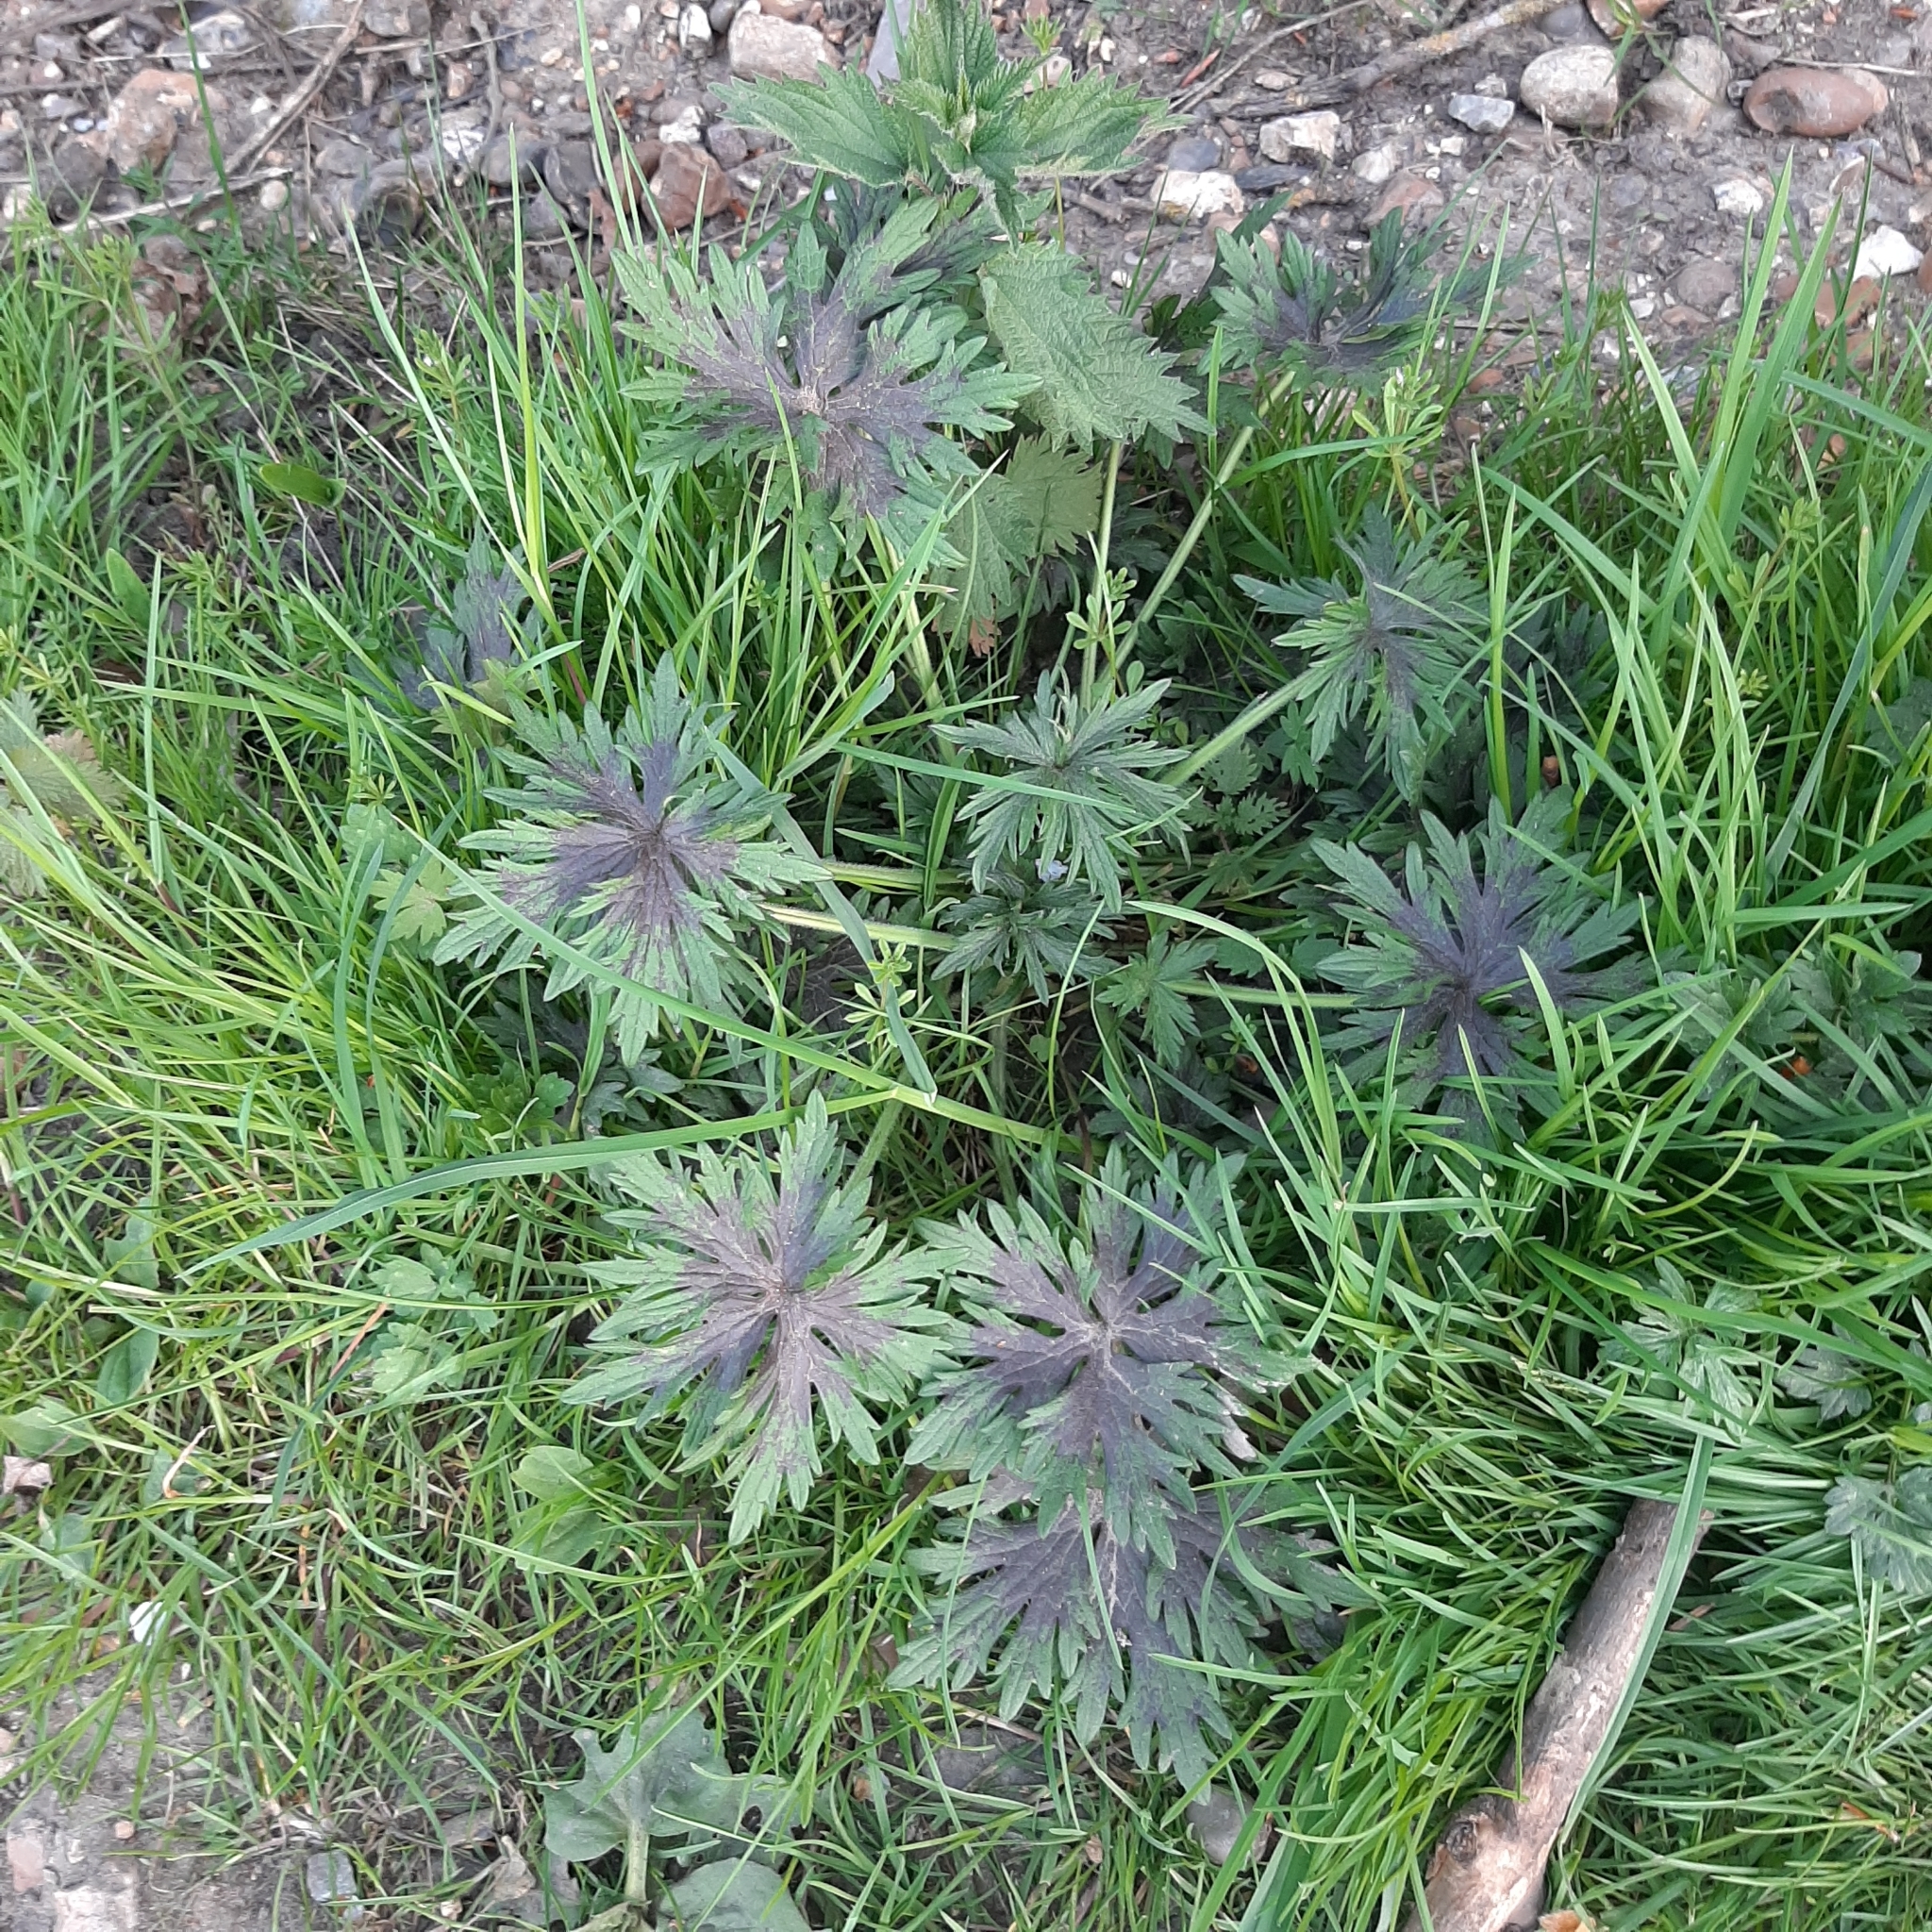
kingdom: Plantae
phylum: Tracheophyta
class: Magnoliopsida
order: Ranunculales
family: Ranunculaceae
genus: Ranunculus
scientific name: Ranunculus acris
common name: Meadow buttercup
